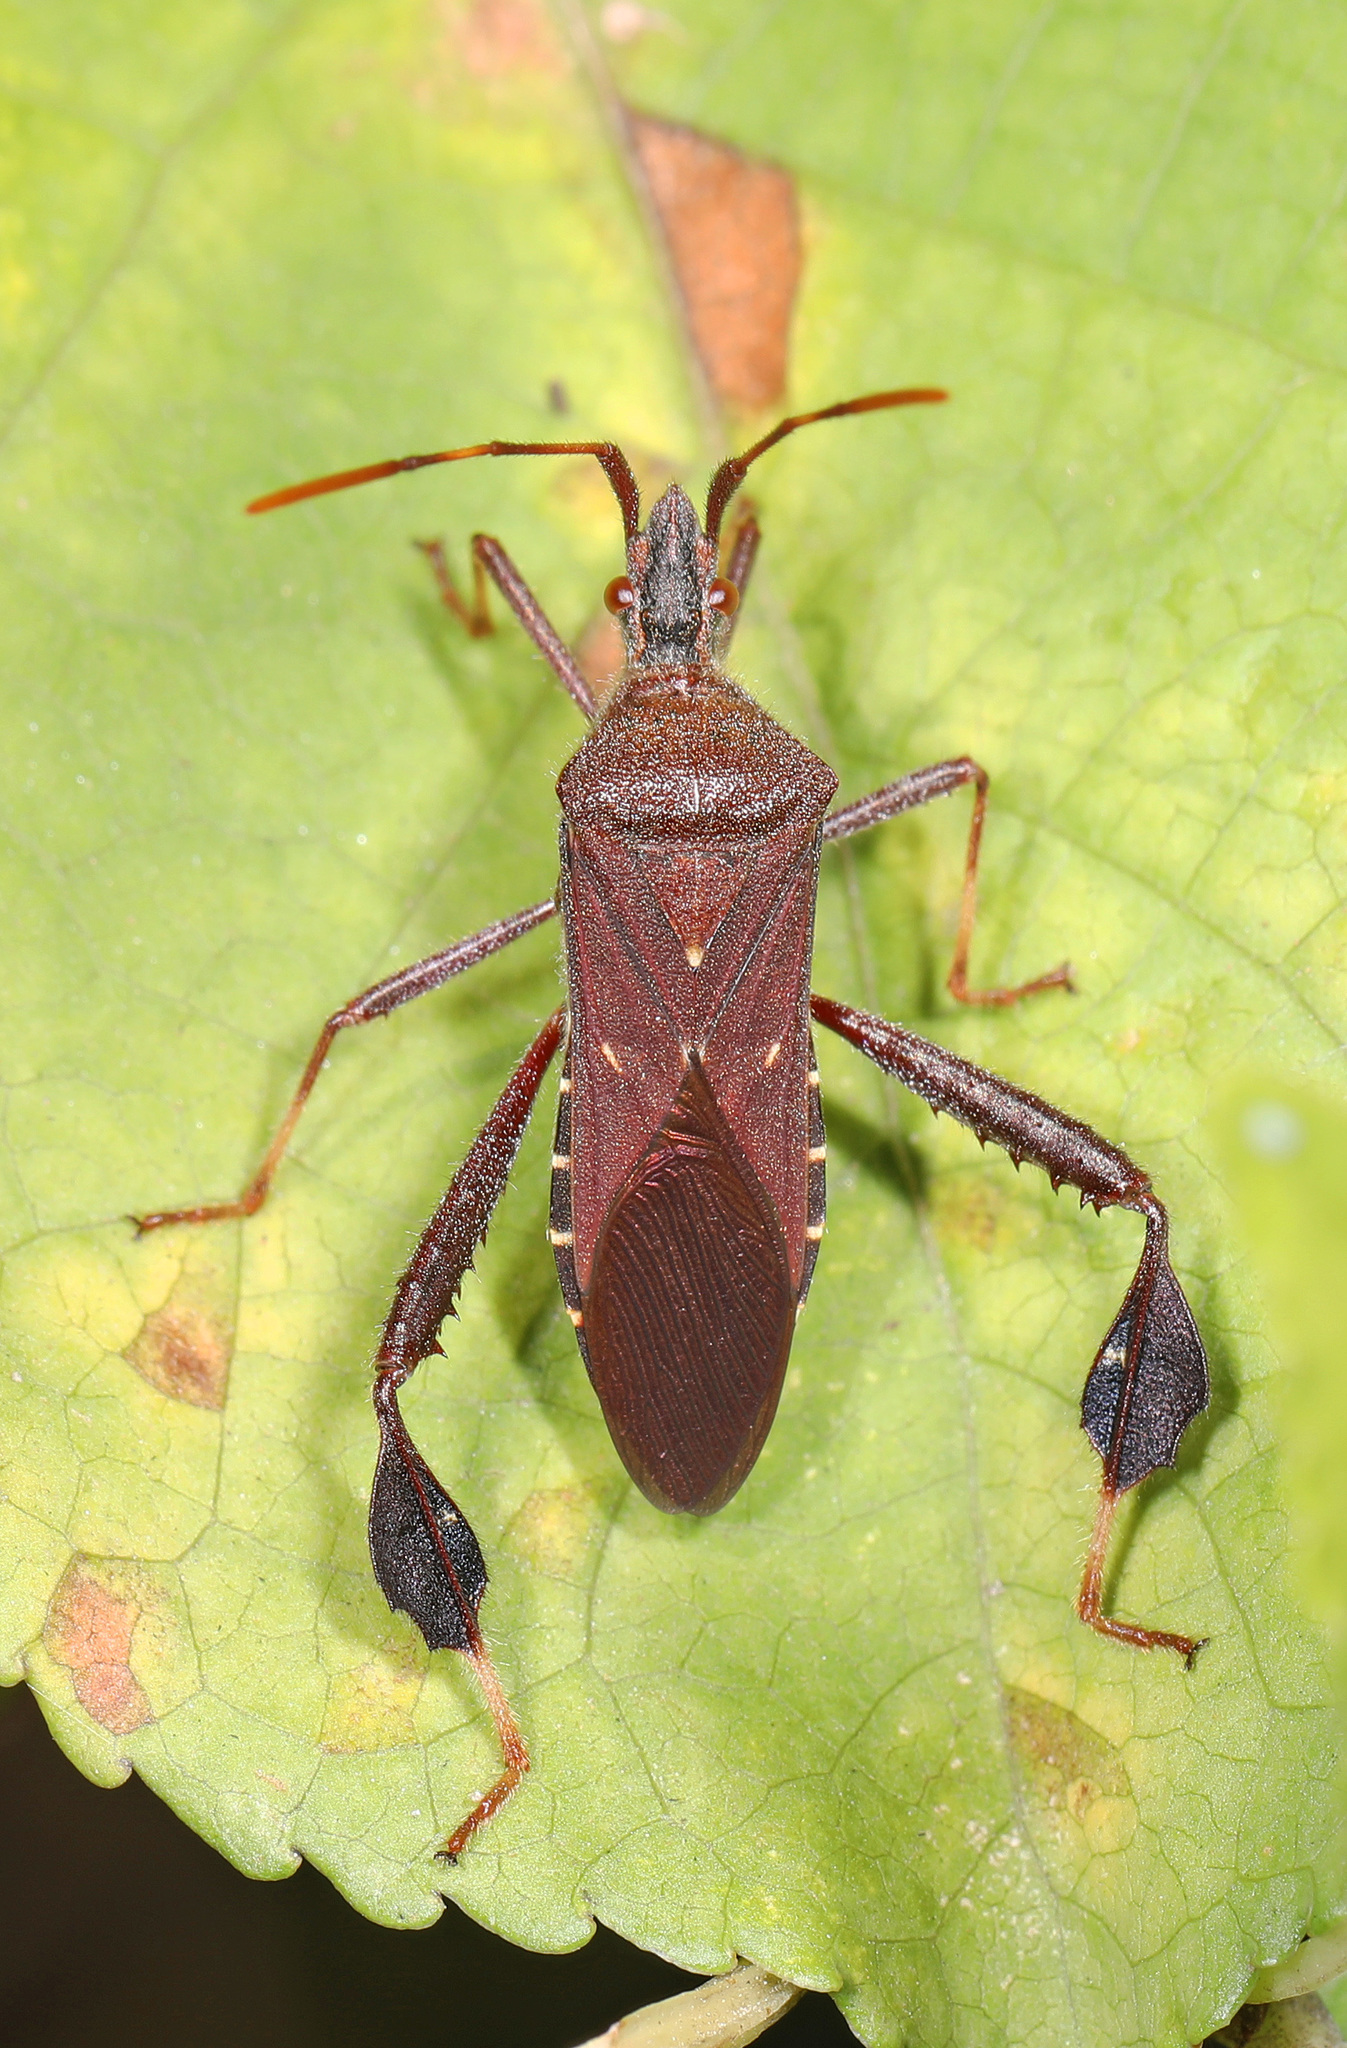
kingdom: Animalia
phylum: Arthropoda
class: Insecta
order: Hemiptera
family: Coreidae
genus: Leptoglossus
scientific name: Leptoglossus oppositus
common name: Northern leaf-footed bug
